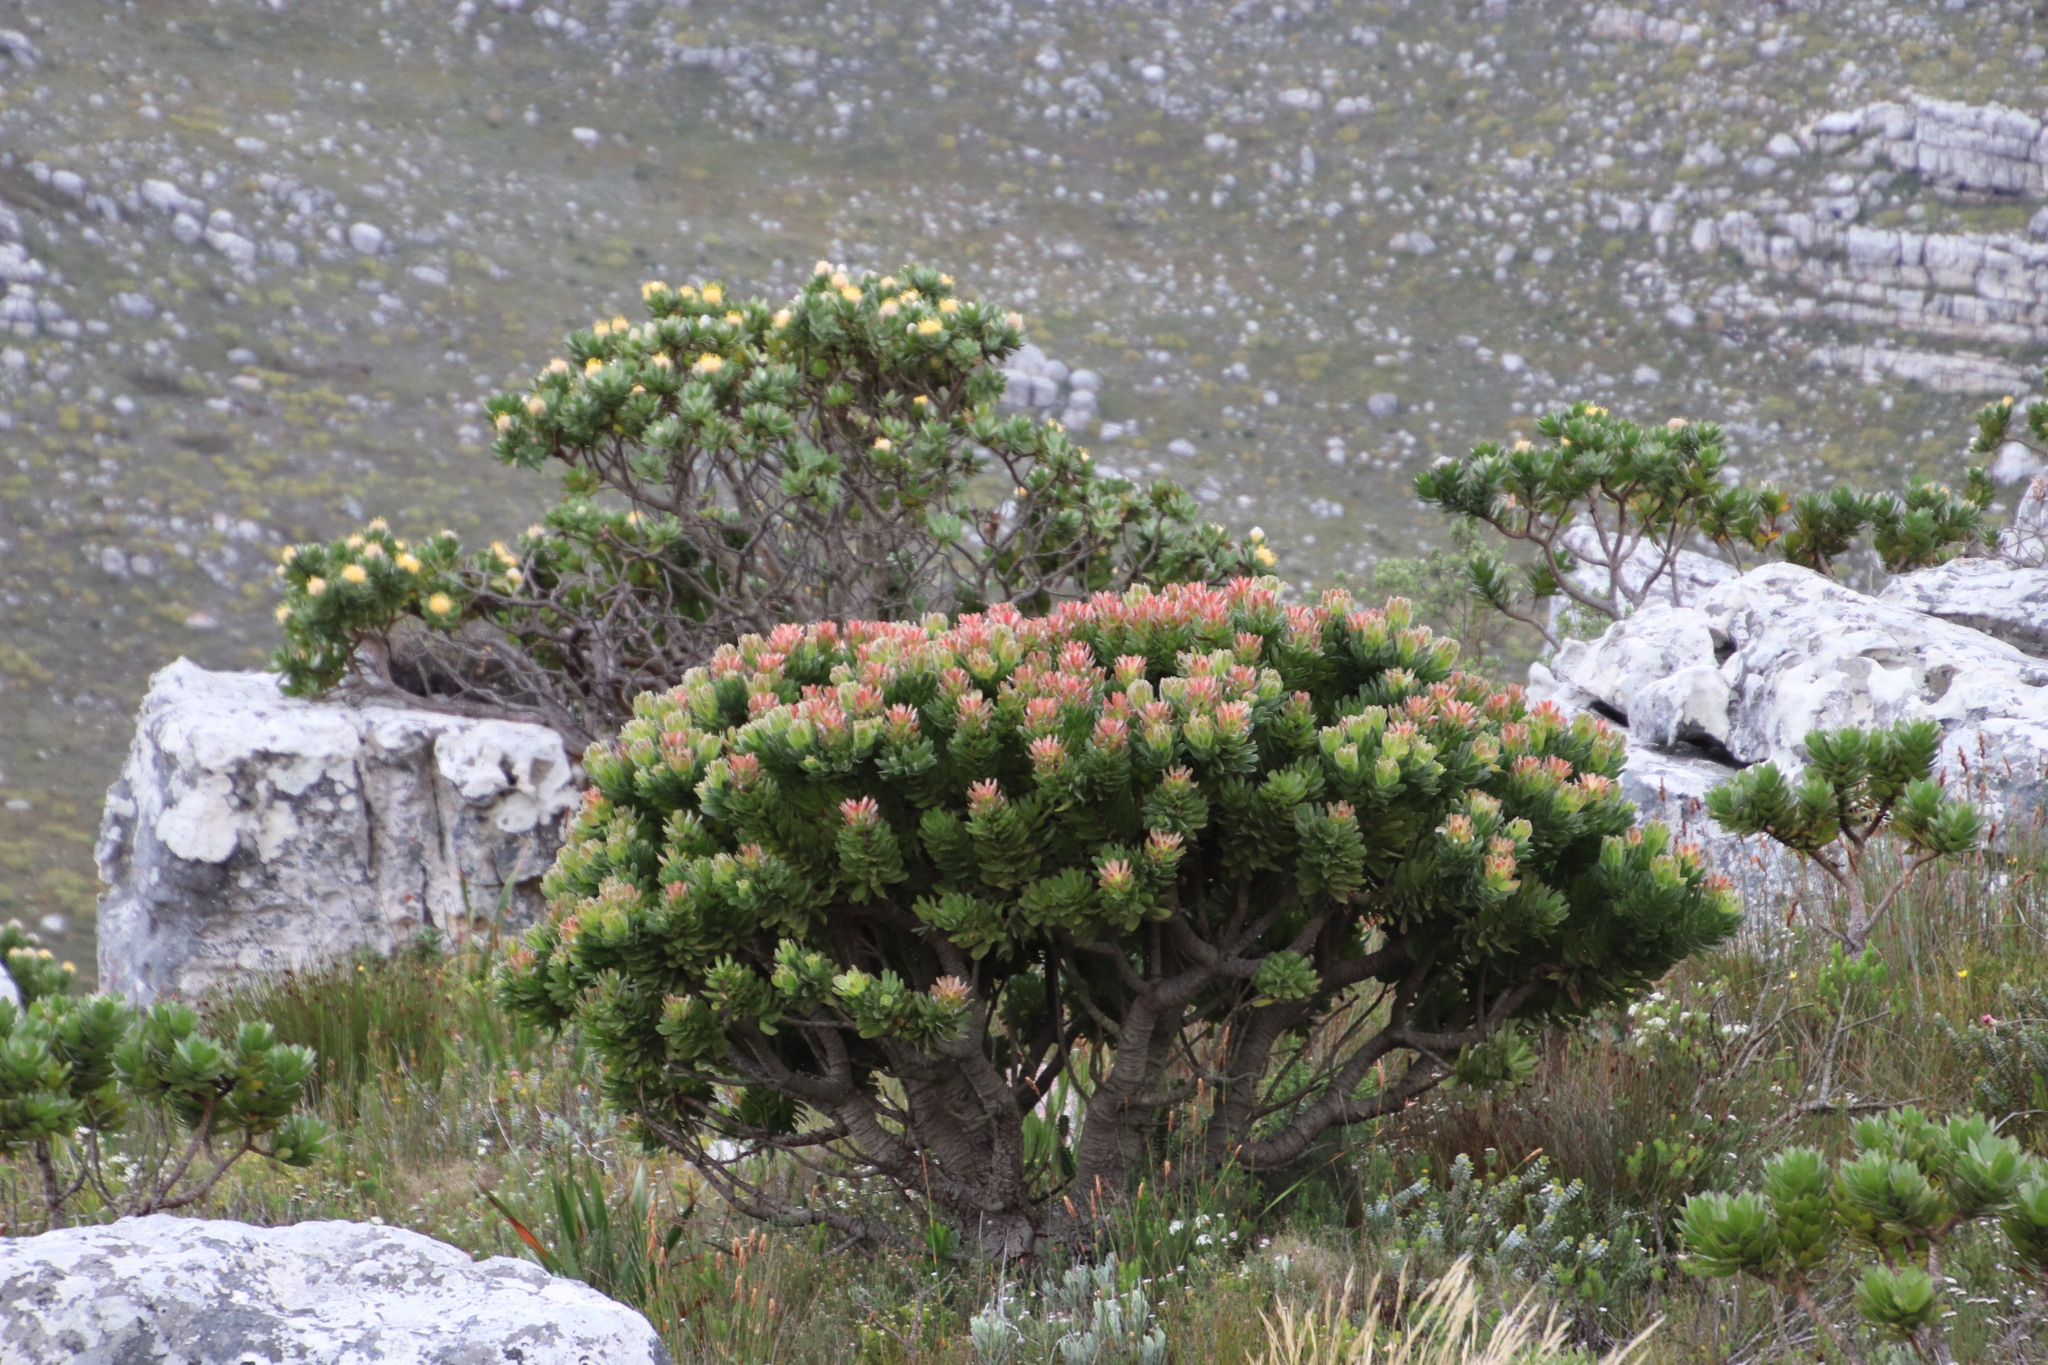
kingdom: Plantae
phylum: Tracheophyta
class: Magnoliopsida
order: Proteales
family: Proteaceae
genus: Mimetes
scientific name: Mimetes fimbriifolius
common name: Fringed bottlebrush
